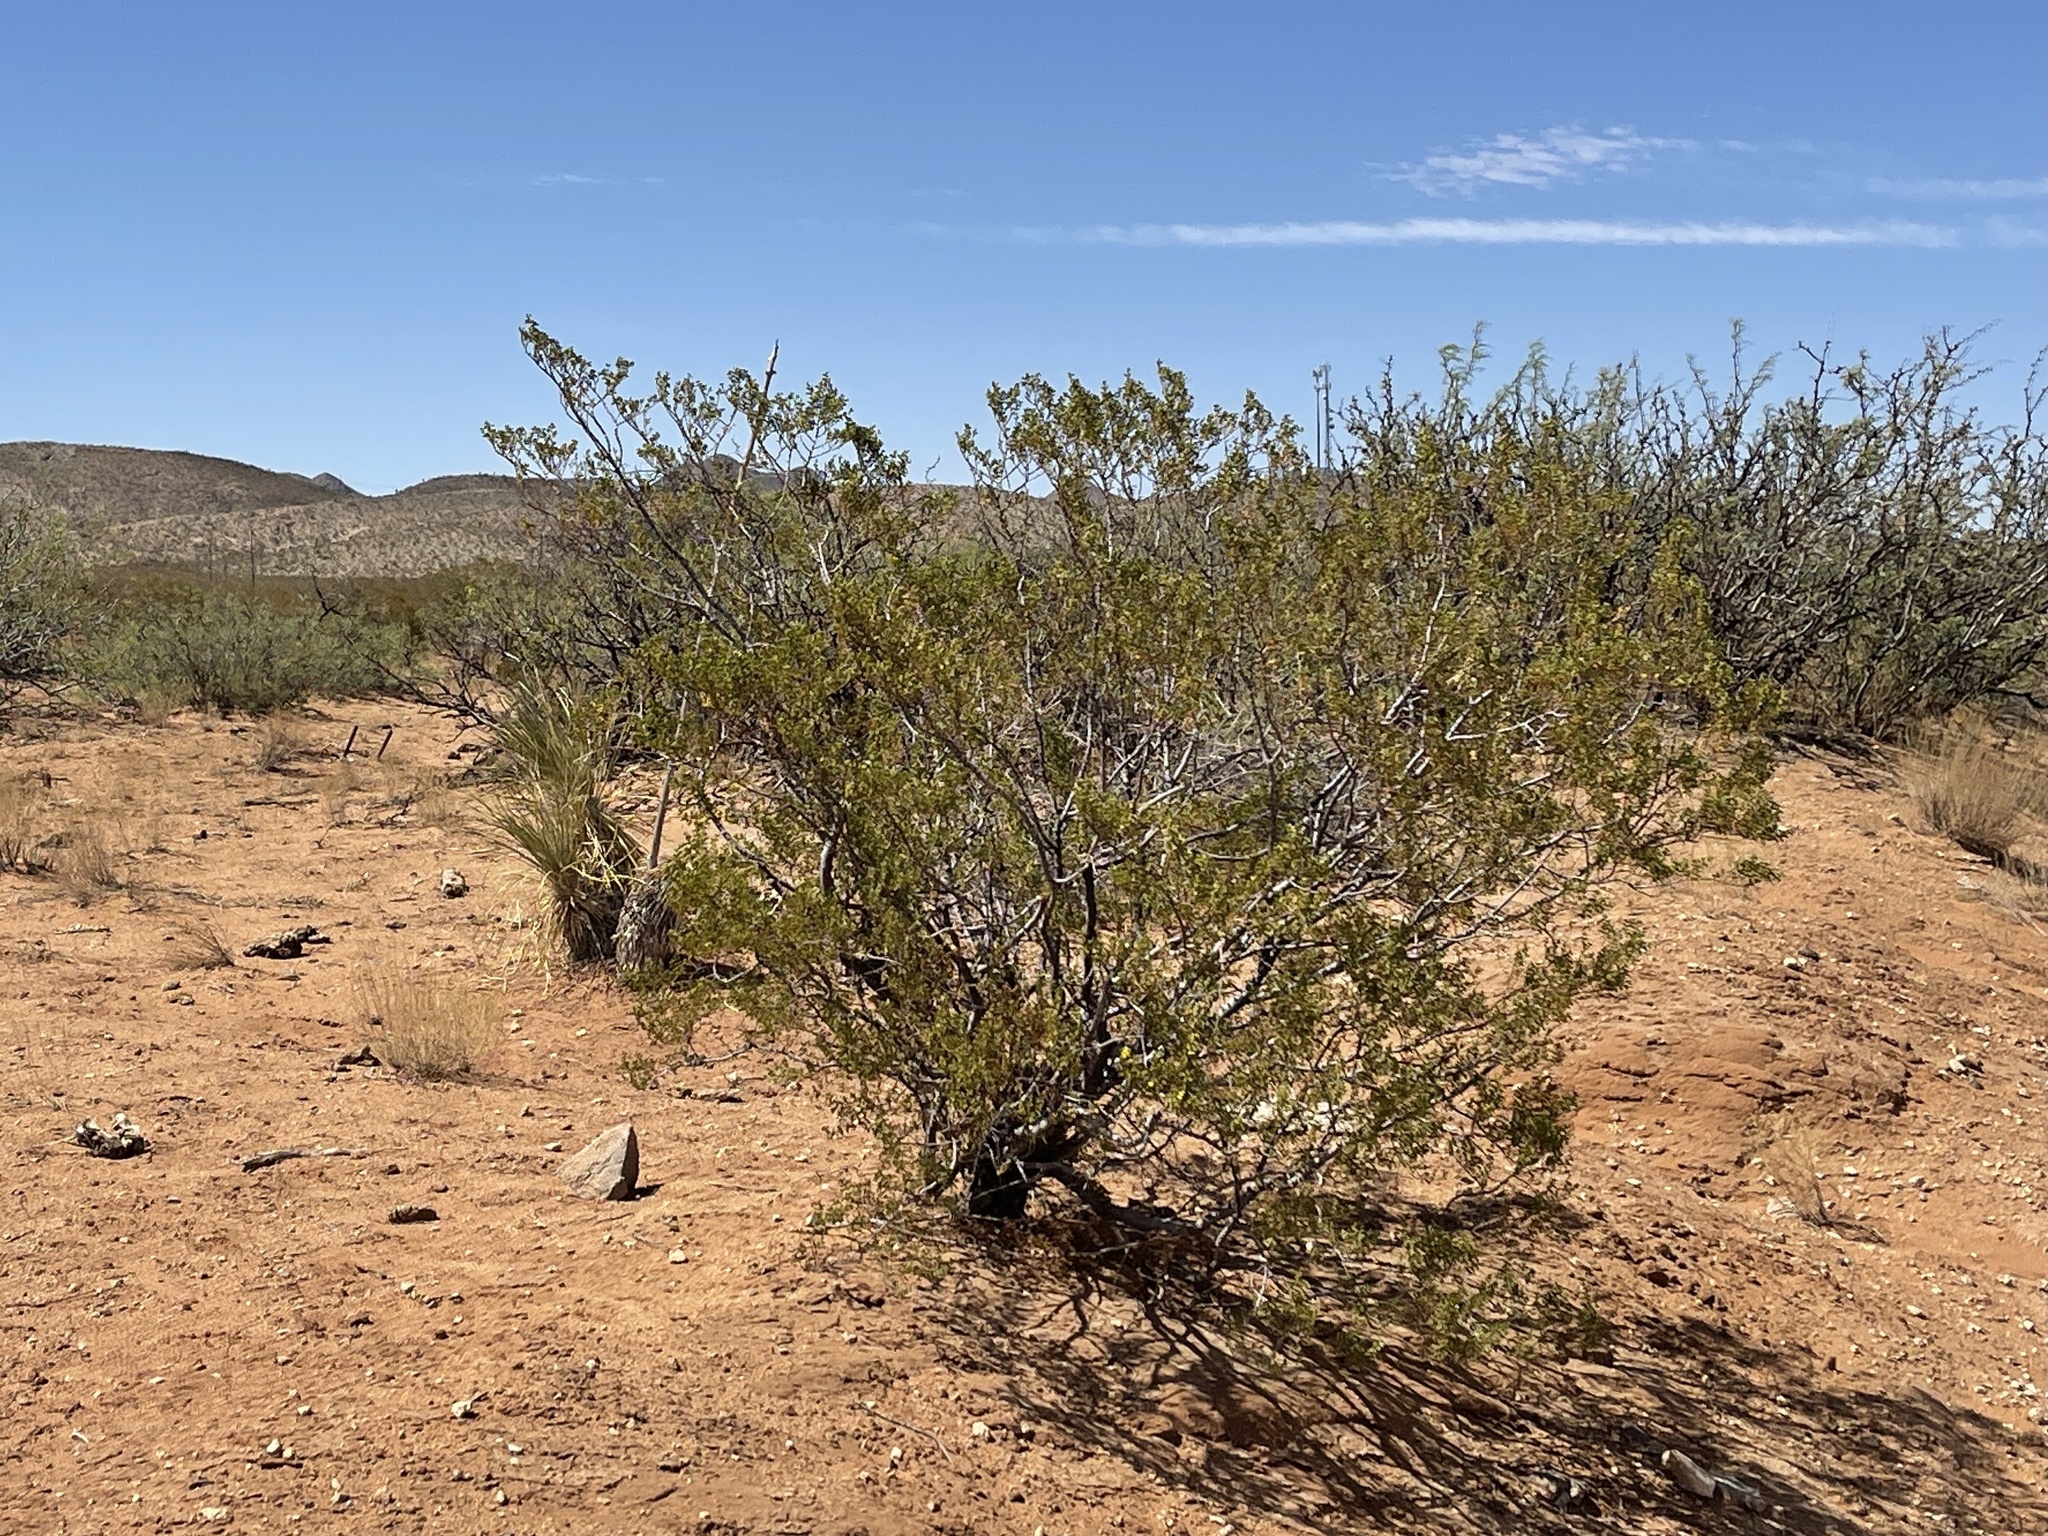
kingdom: Plantae
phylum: Tracheophyta
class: Magnoliopsida
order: Zygophyllales
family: Zygophyllaceae
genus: Larrea
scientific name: Larrea tridentata
